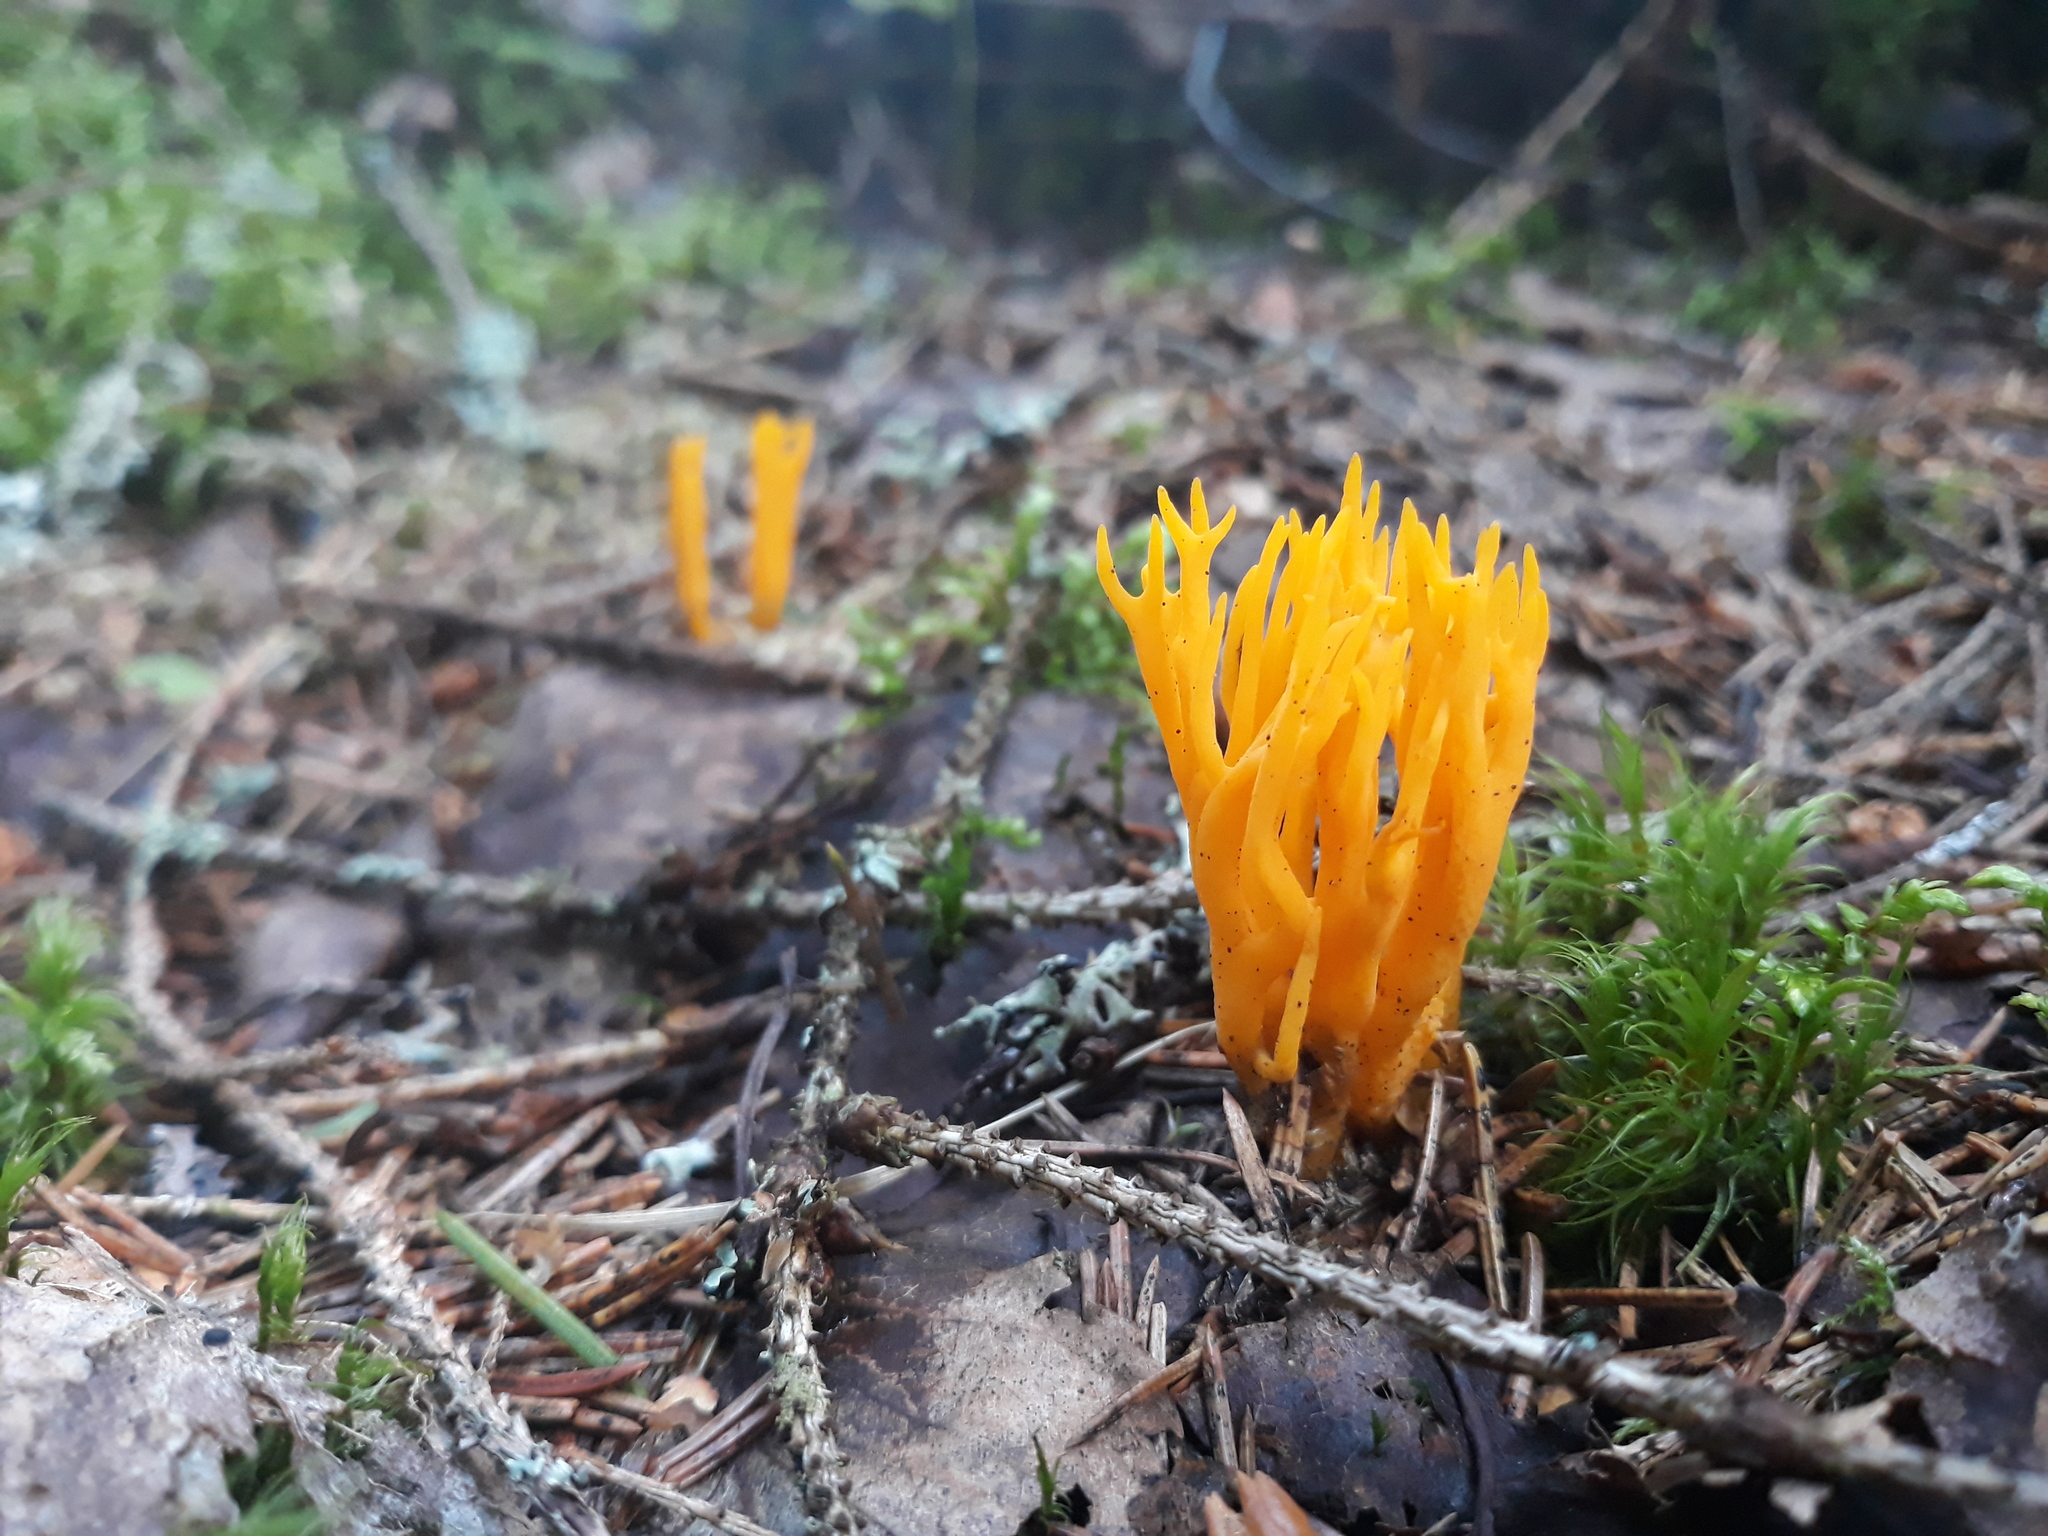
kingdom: Fungi
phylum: Basidiomycota
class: Dacrymycetes
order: Dacrymycetales
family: Dacrymycetaceae
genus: Calocera
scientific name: Calocera viscosa
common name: Yellow stagshorn
